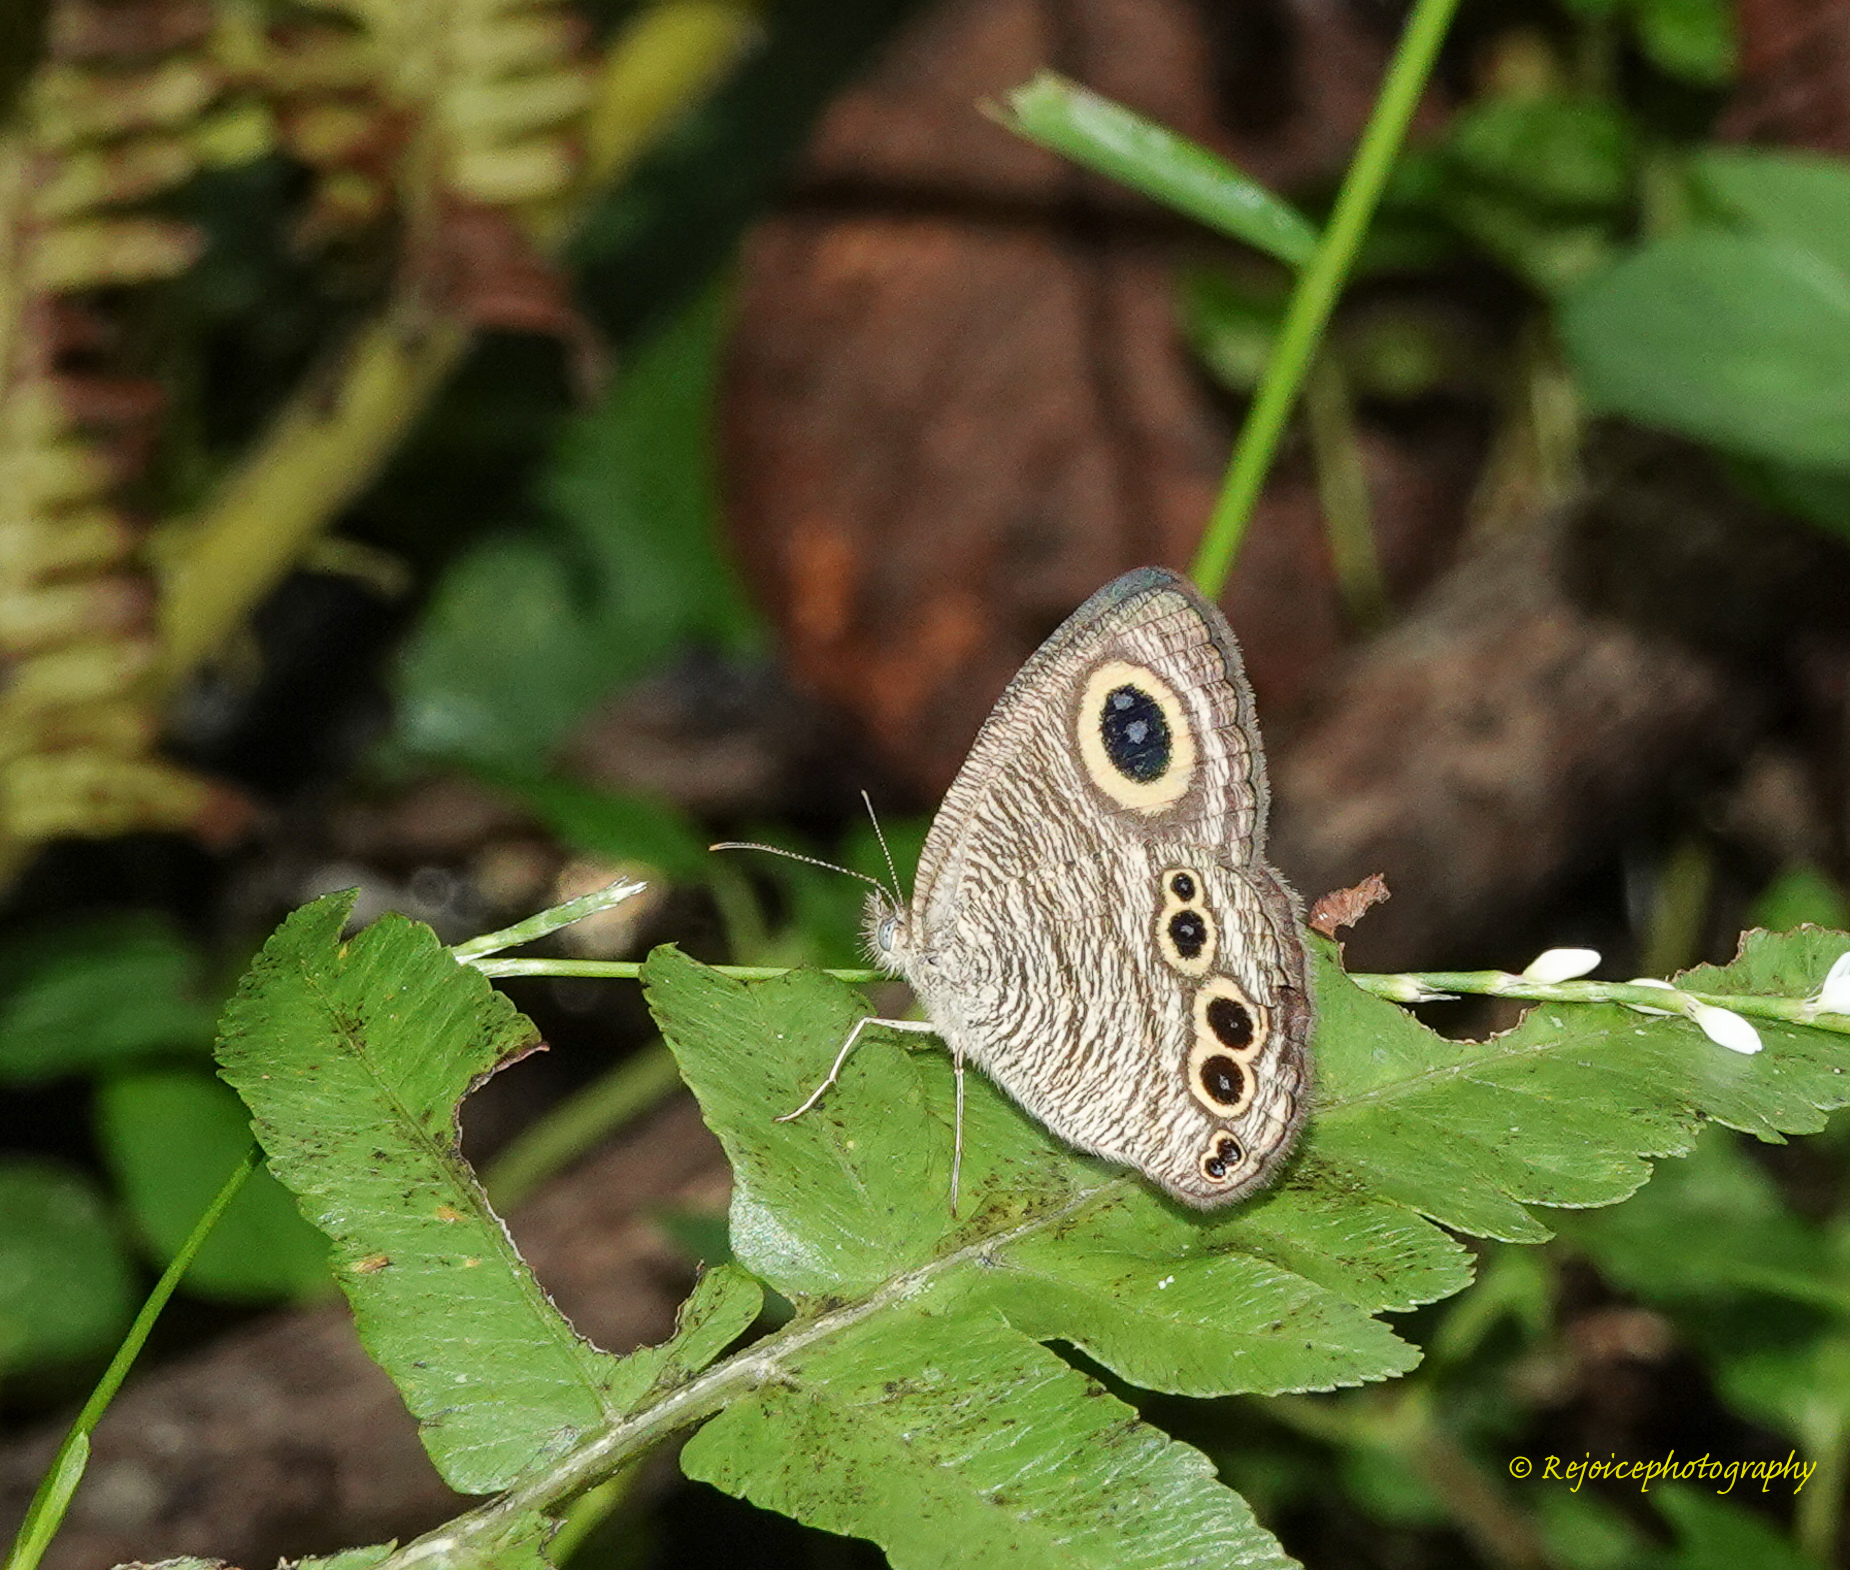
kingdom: Animalia
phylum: Arthropoda
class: Insecta
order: Lepidoptera
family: Nymphalidae
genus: Ypthima
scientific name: Ypthima baldus
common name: Common five-ring
